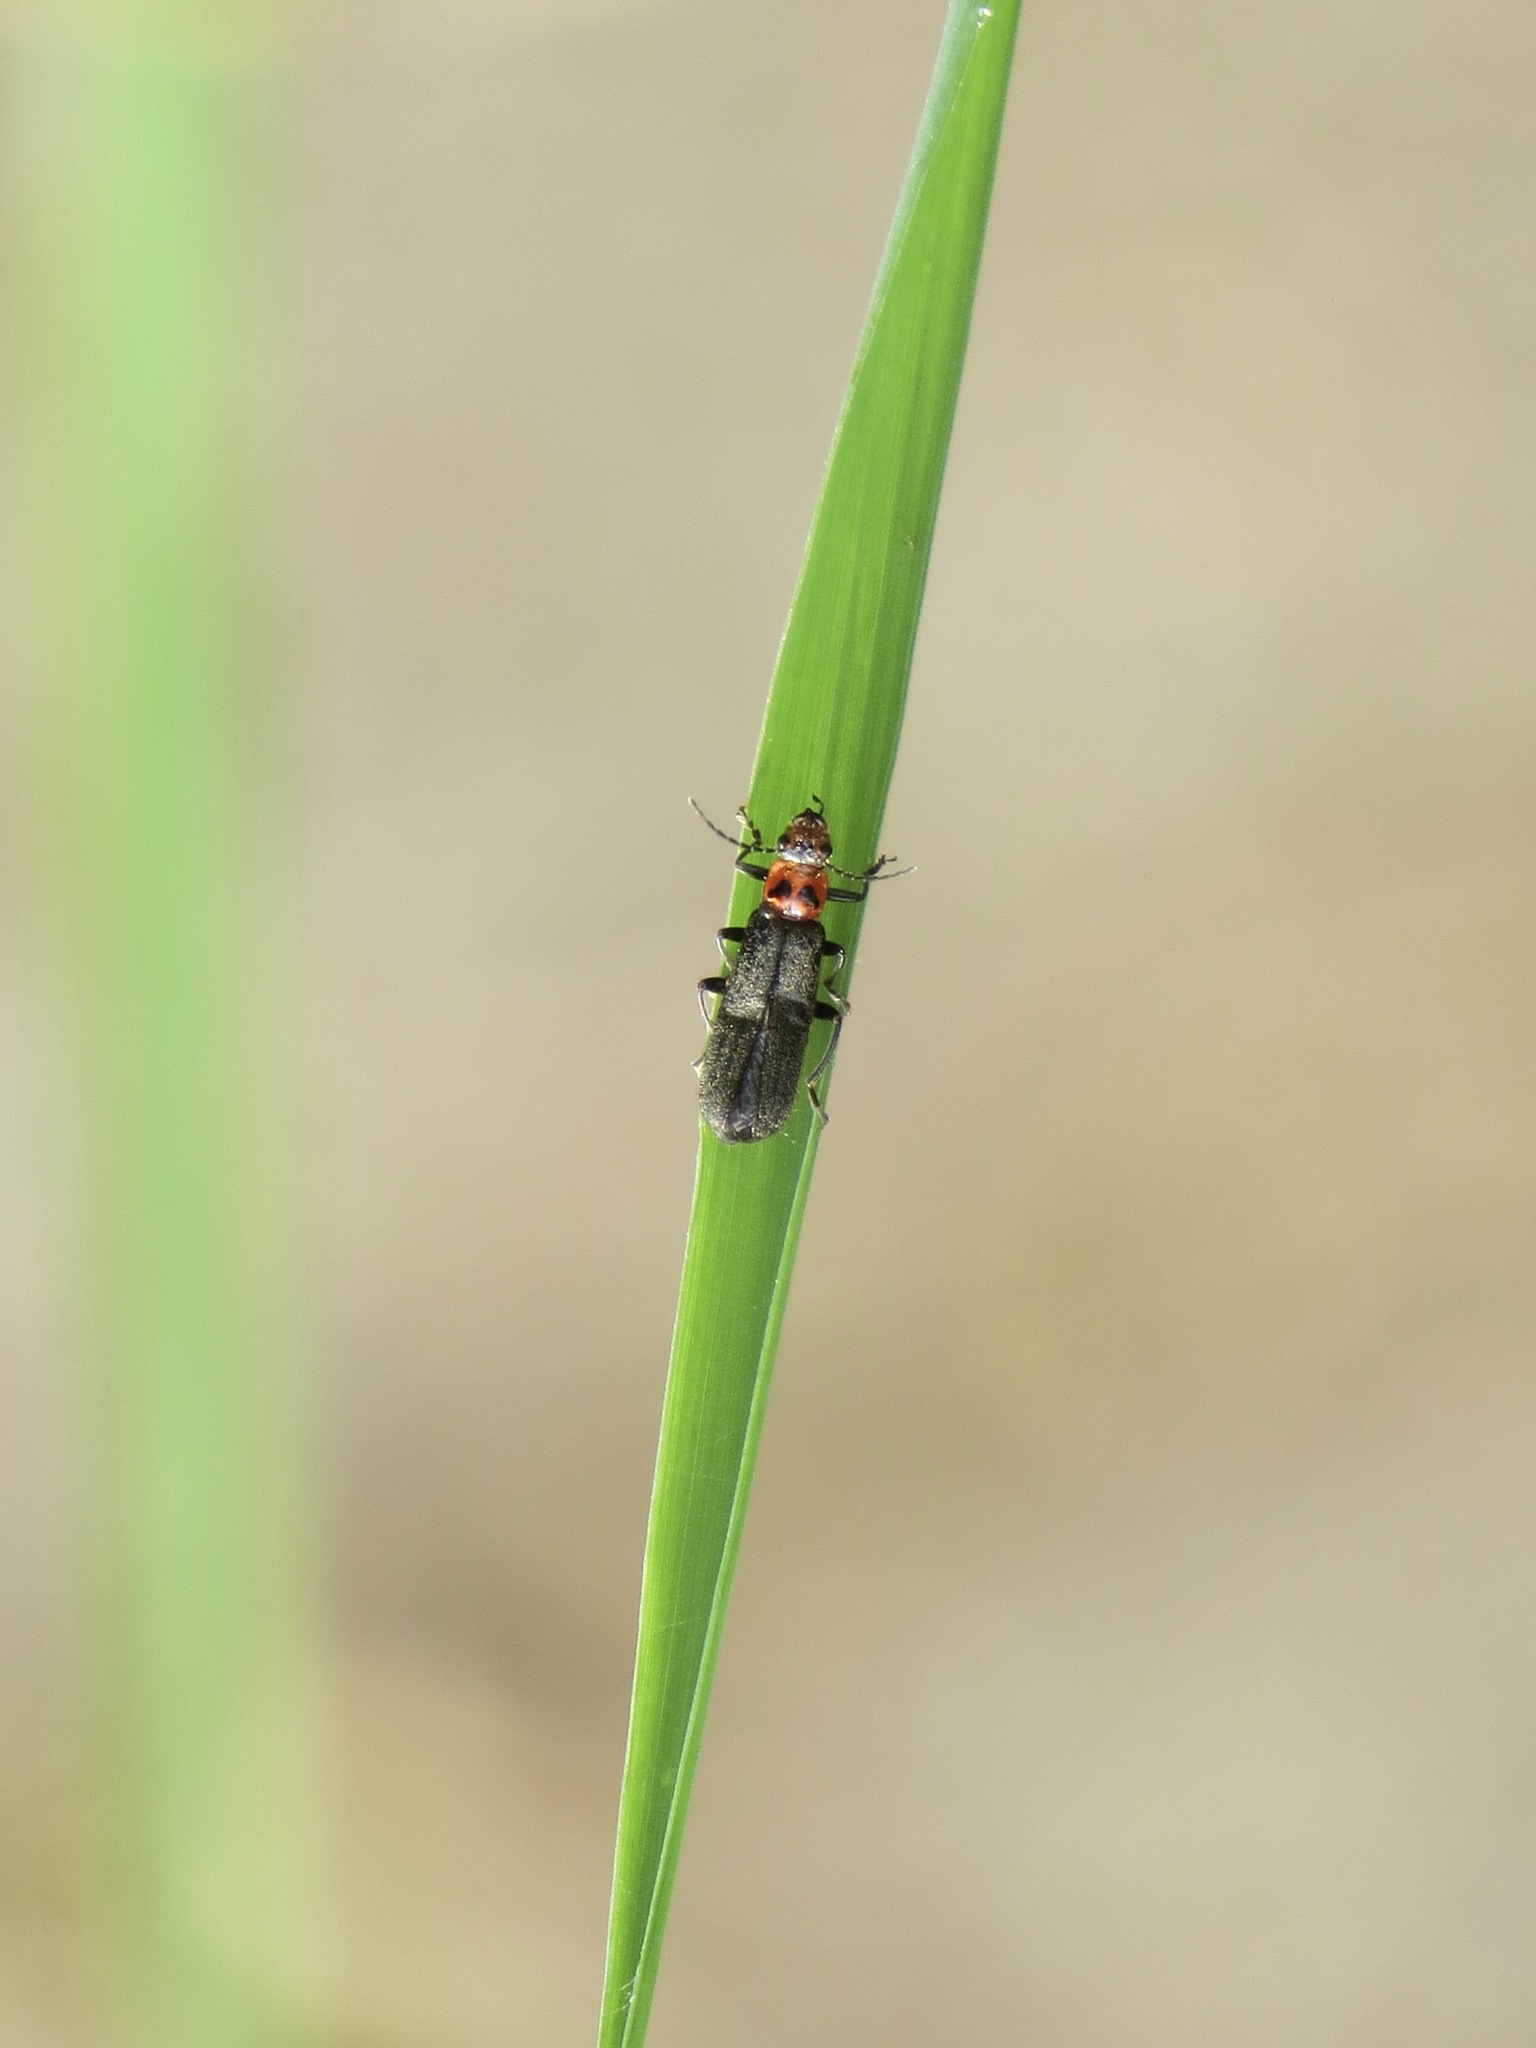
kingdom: Animalia
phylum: Arthropoda
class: Insecta
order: Coleoptera
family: Cantharidae
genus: Cyrtomoptera
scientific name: Cyrtomoptera divisa
